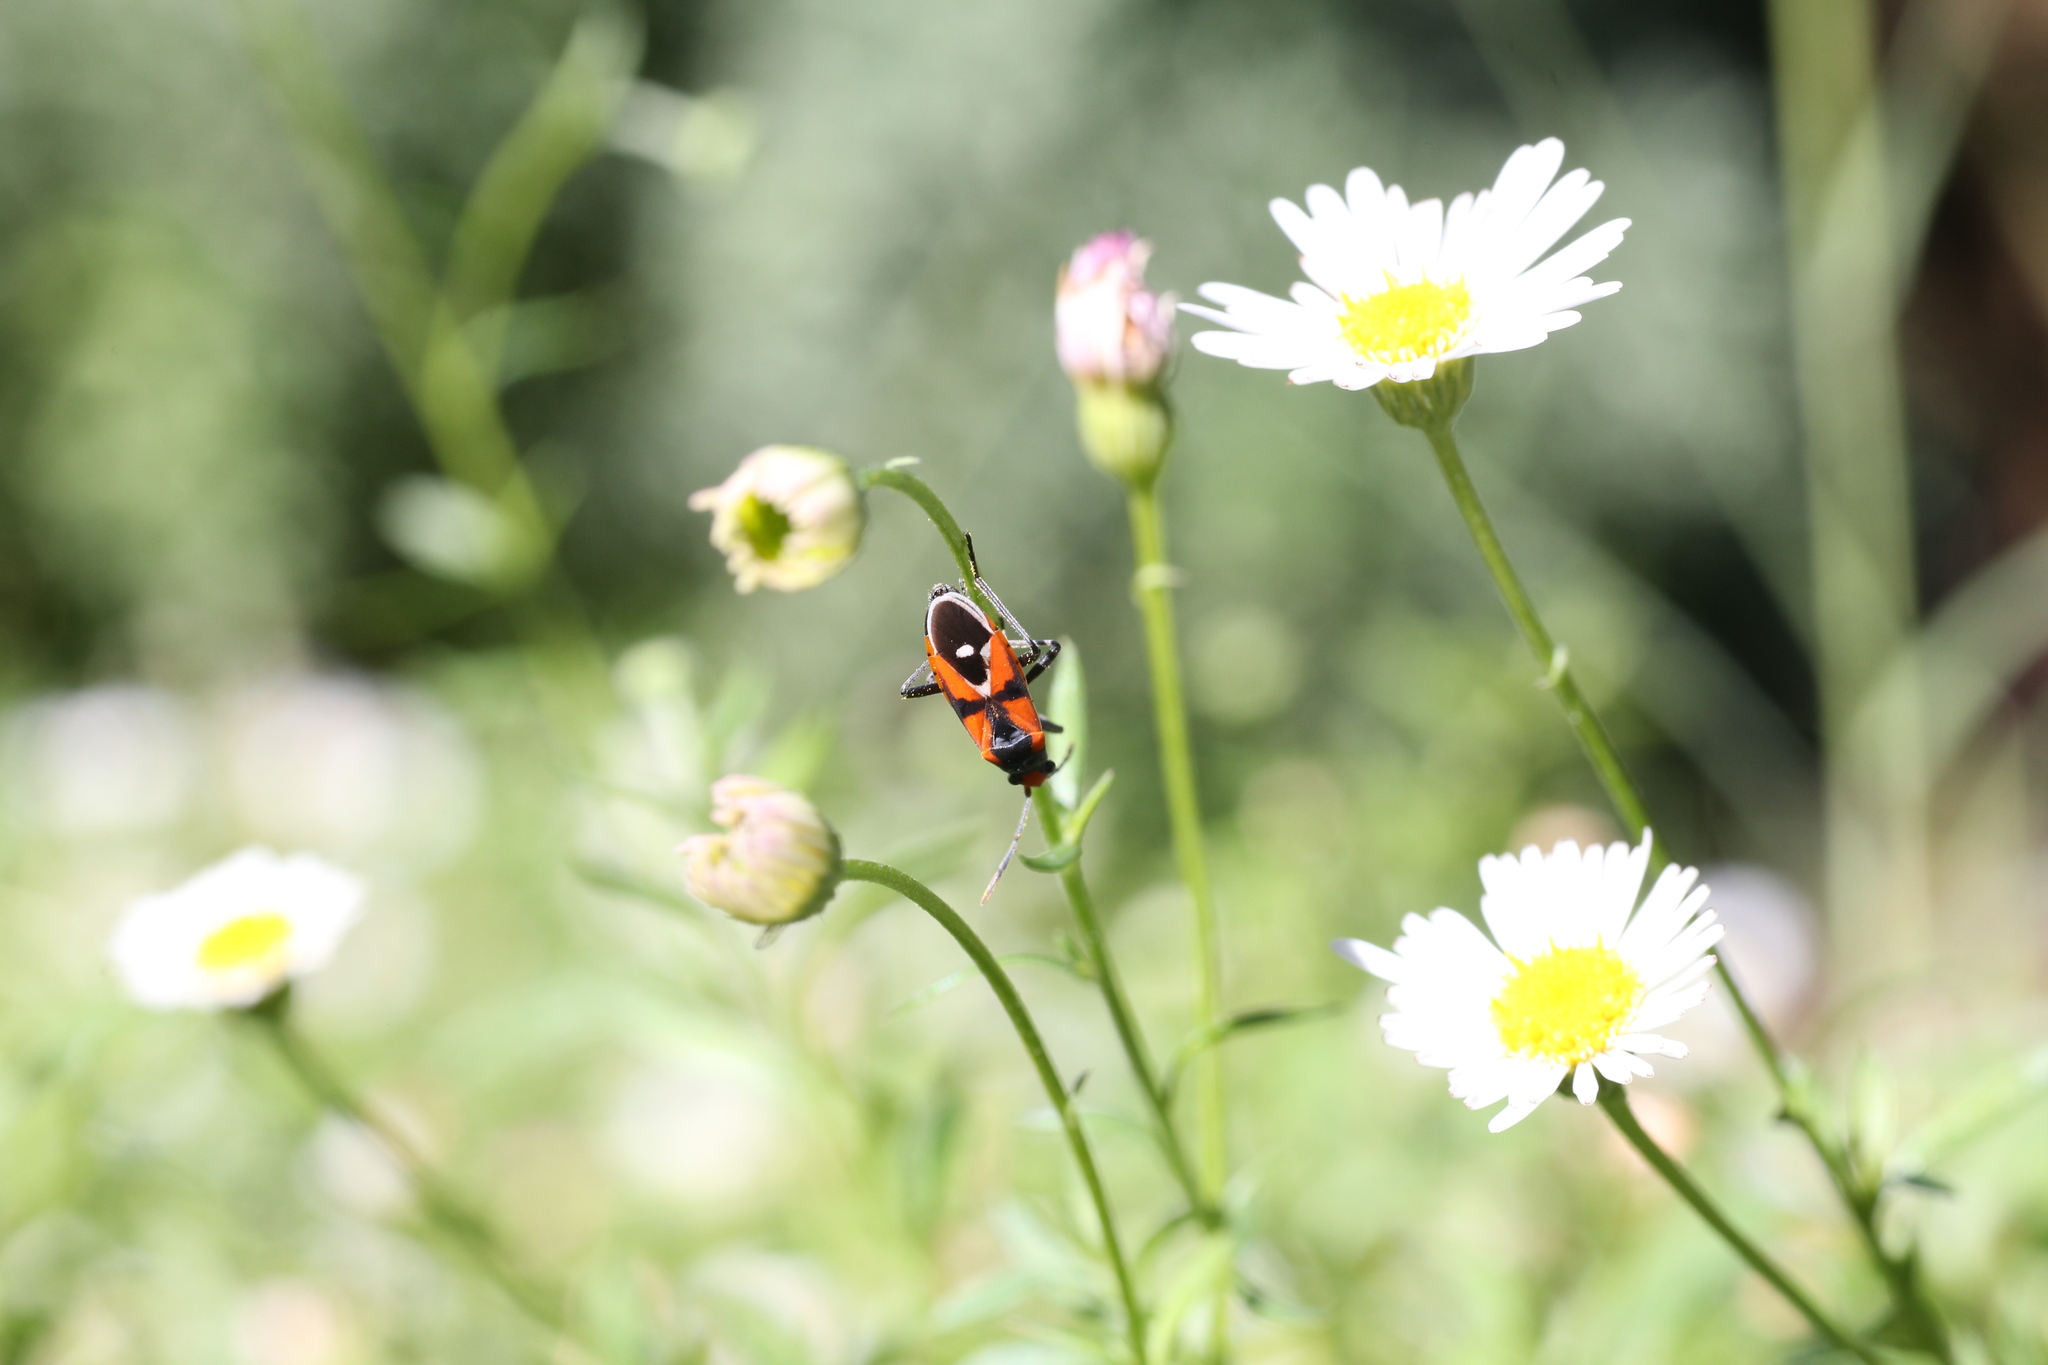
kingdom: Animalia
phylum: Arthropoda
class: Insecta
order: Hemiptera
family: Lygaeidae
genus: Melanerythrus
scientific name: Melanerythrus mactans
